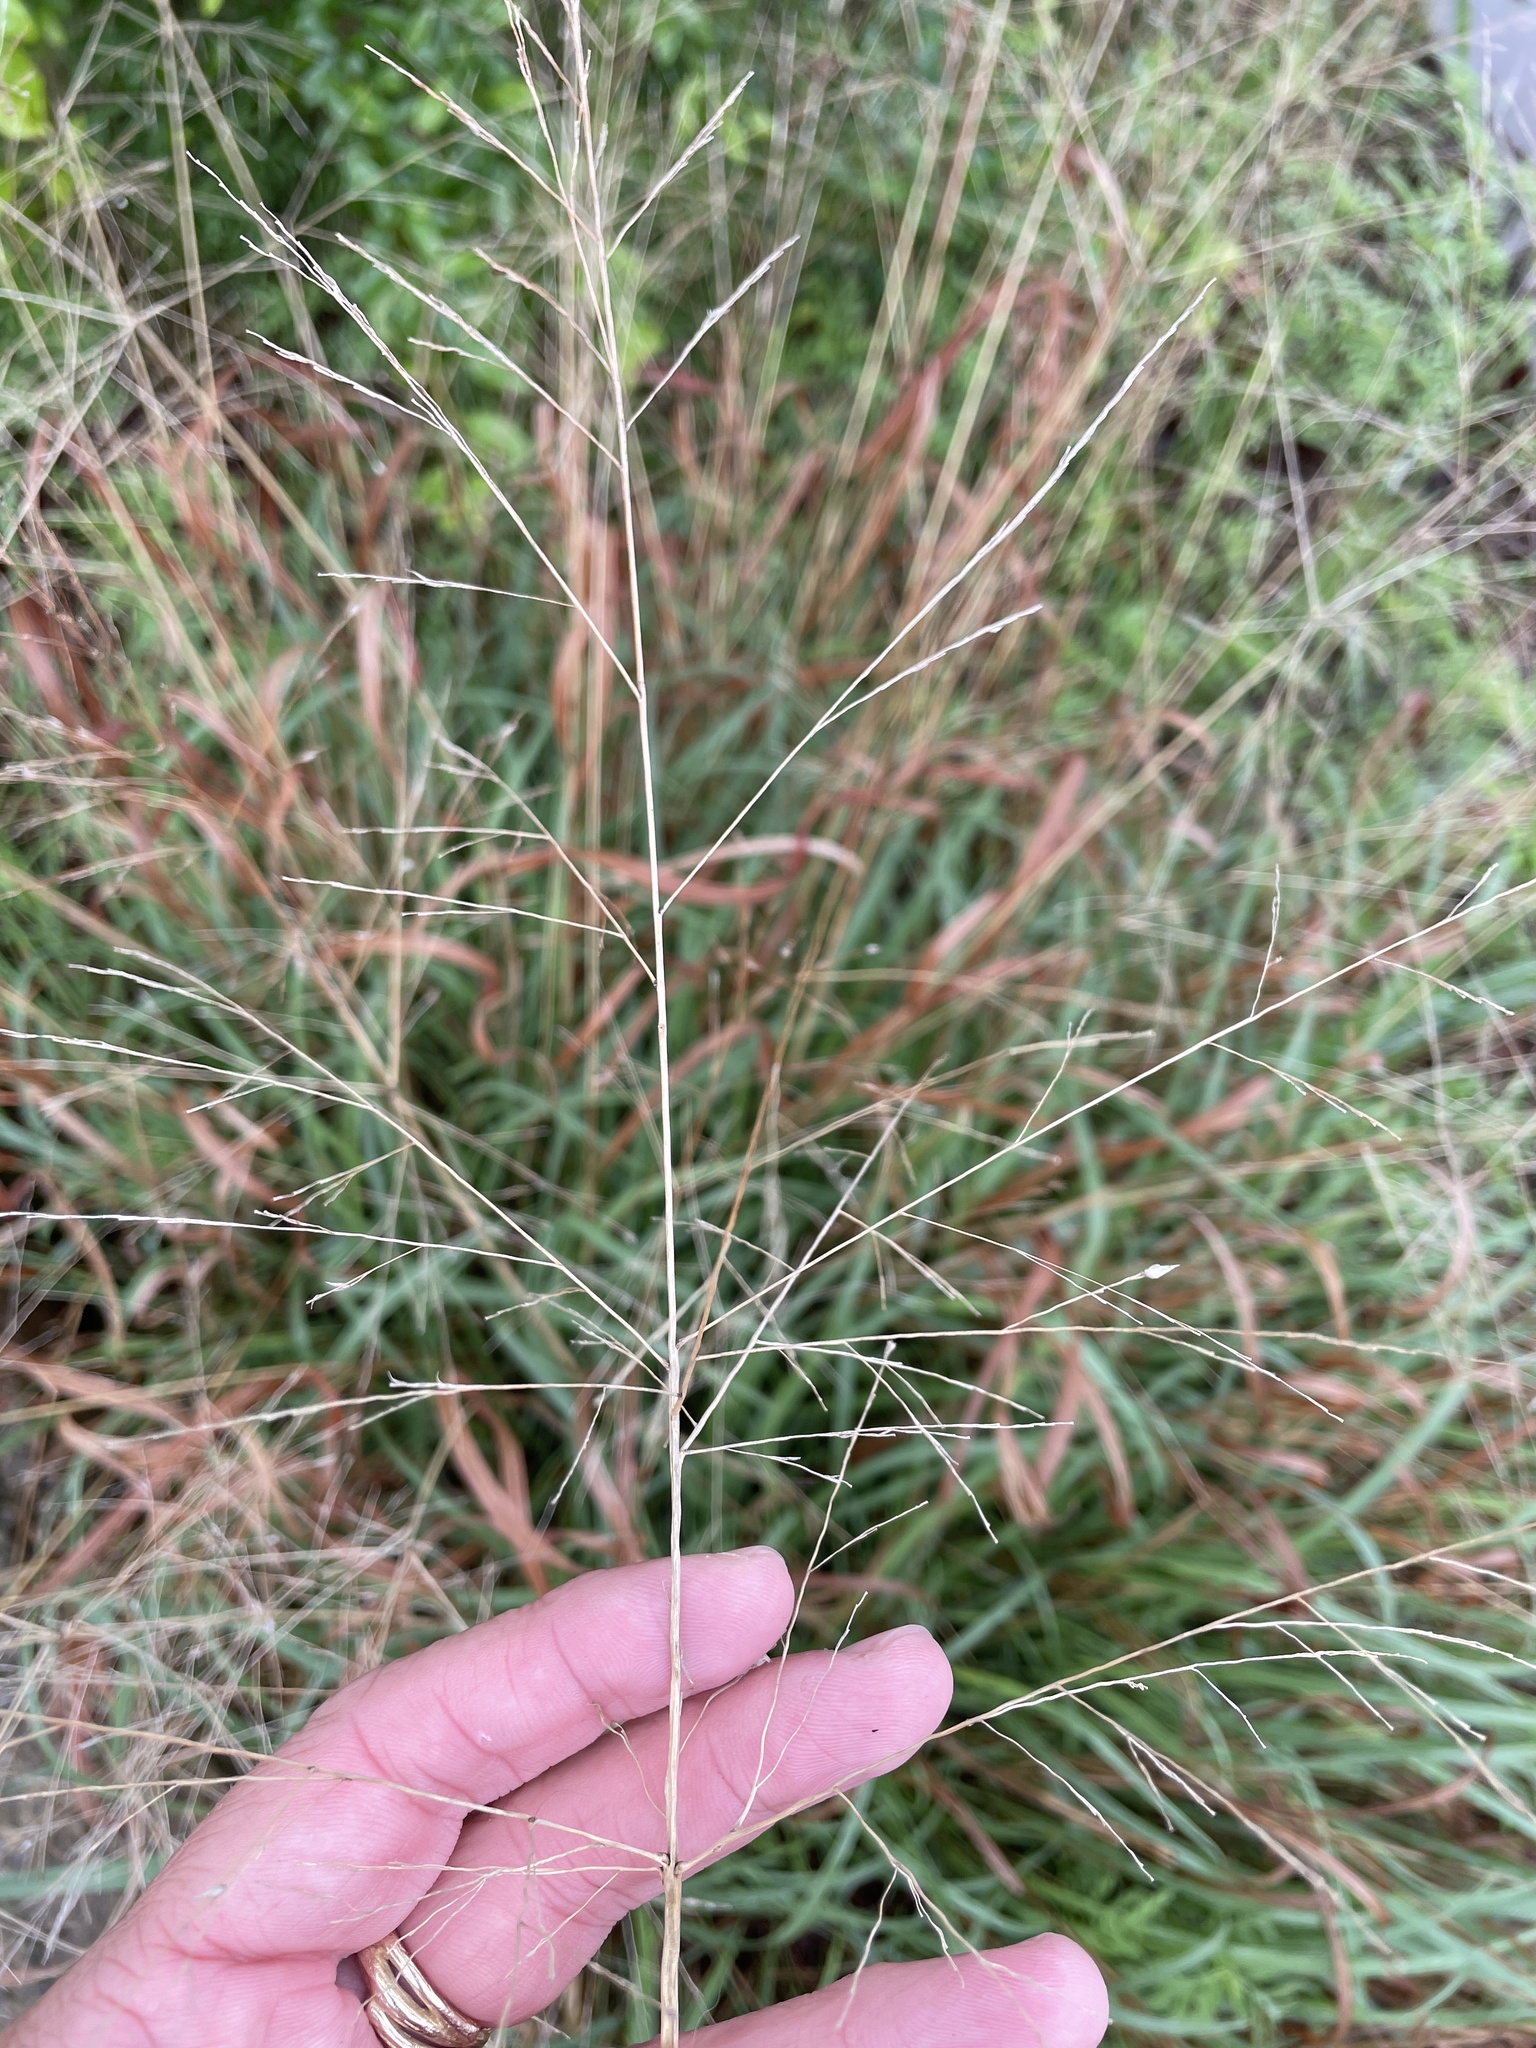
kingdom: Plantae
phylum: Tracheophyta
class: Liliopsida
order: Poales
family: Poaceae
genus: Panicum
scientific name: Panicum virgatum
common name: Switchgrass
